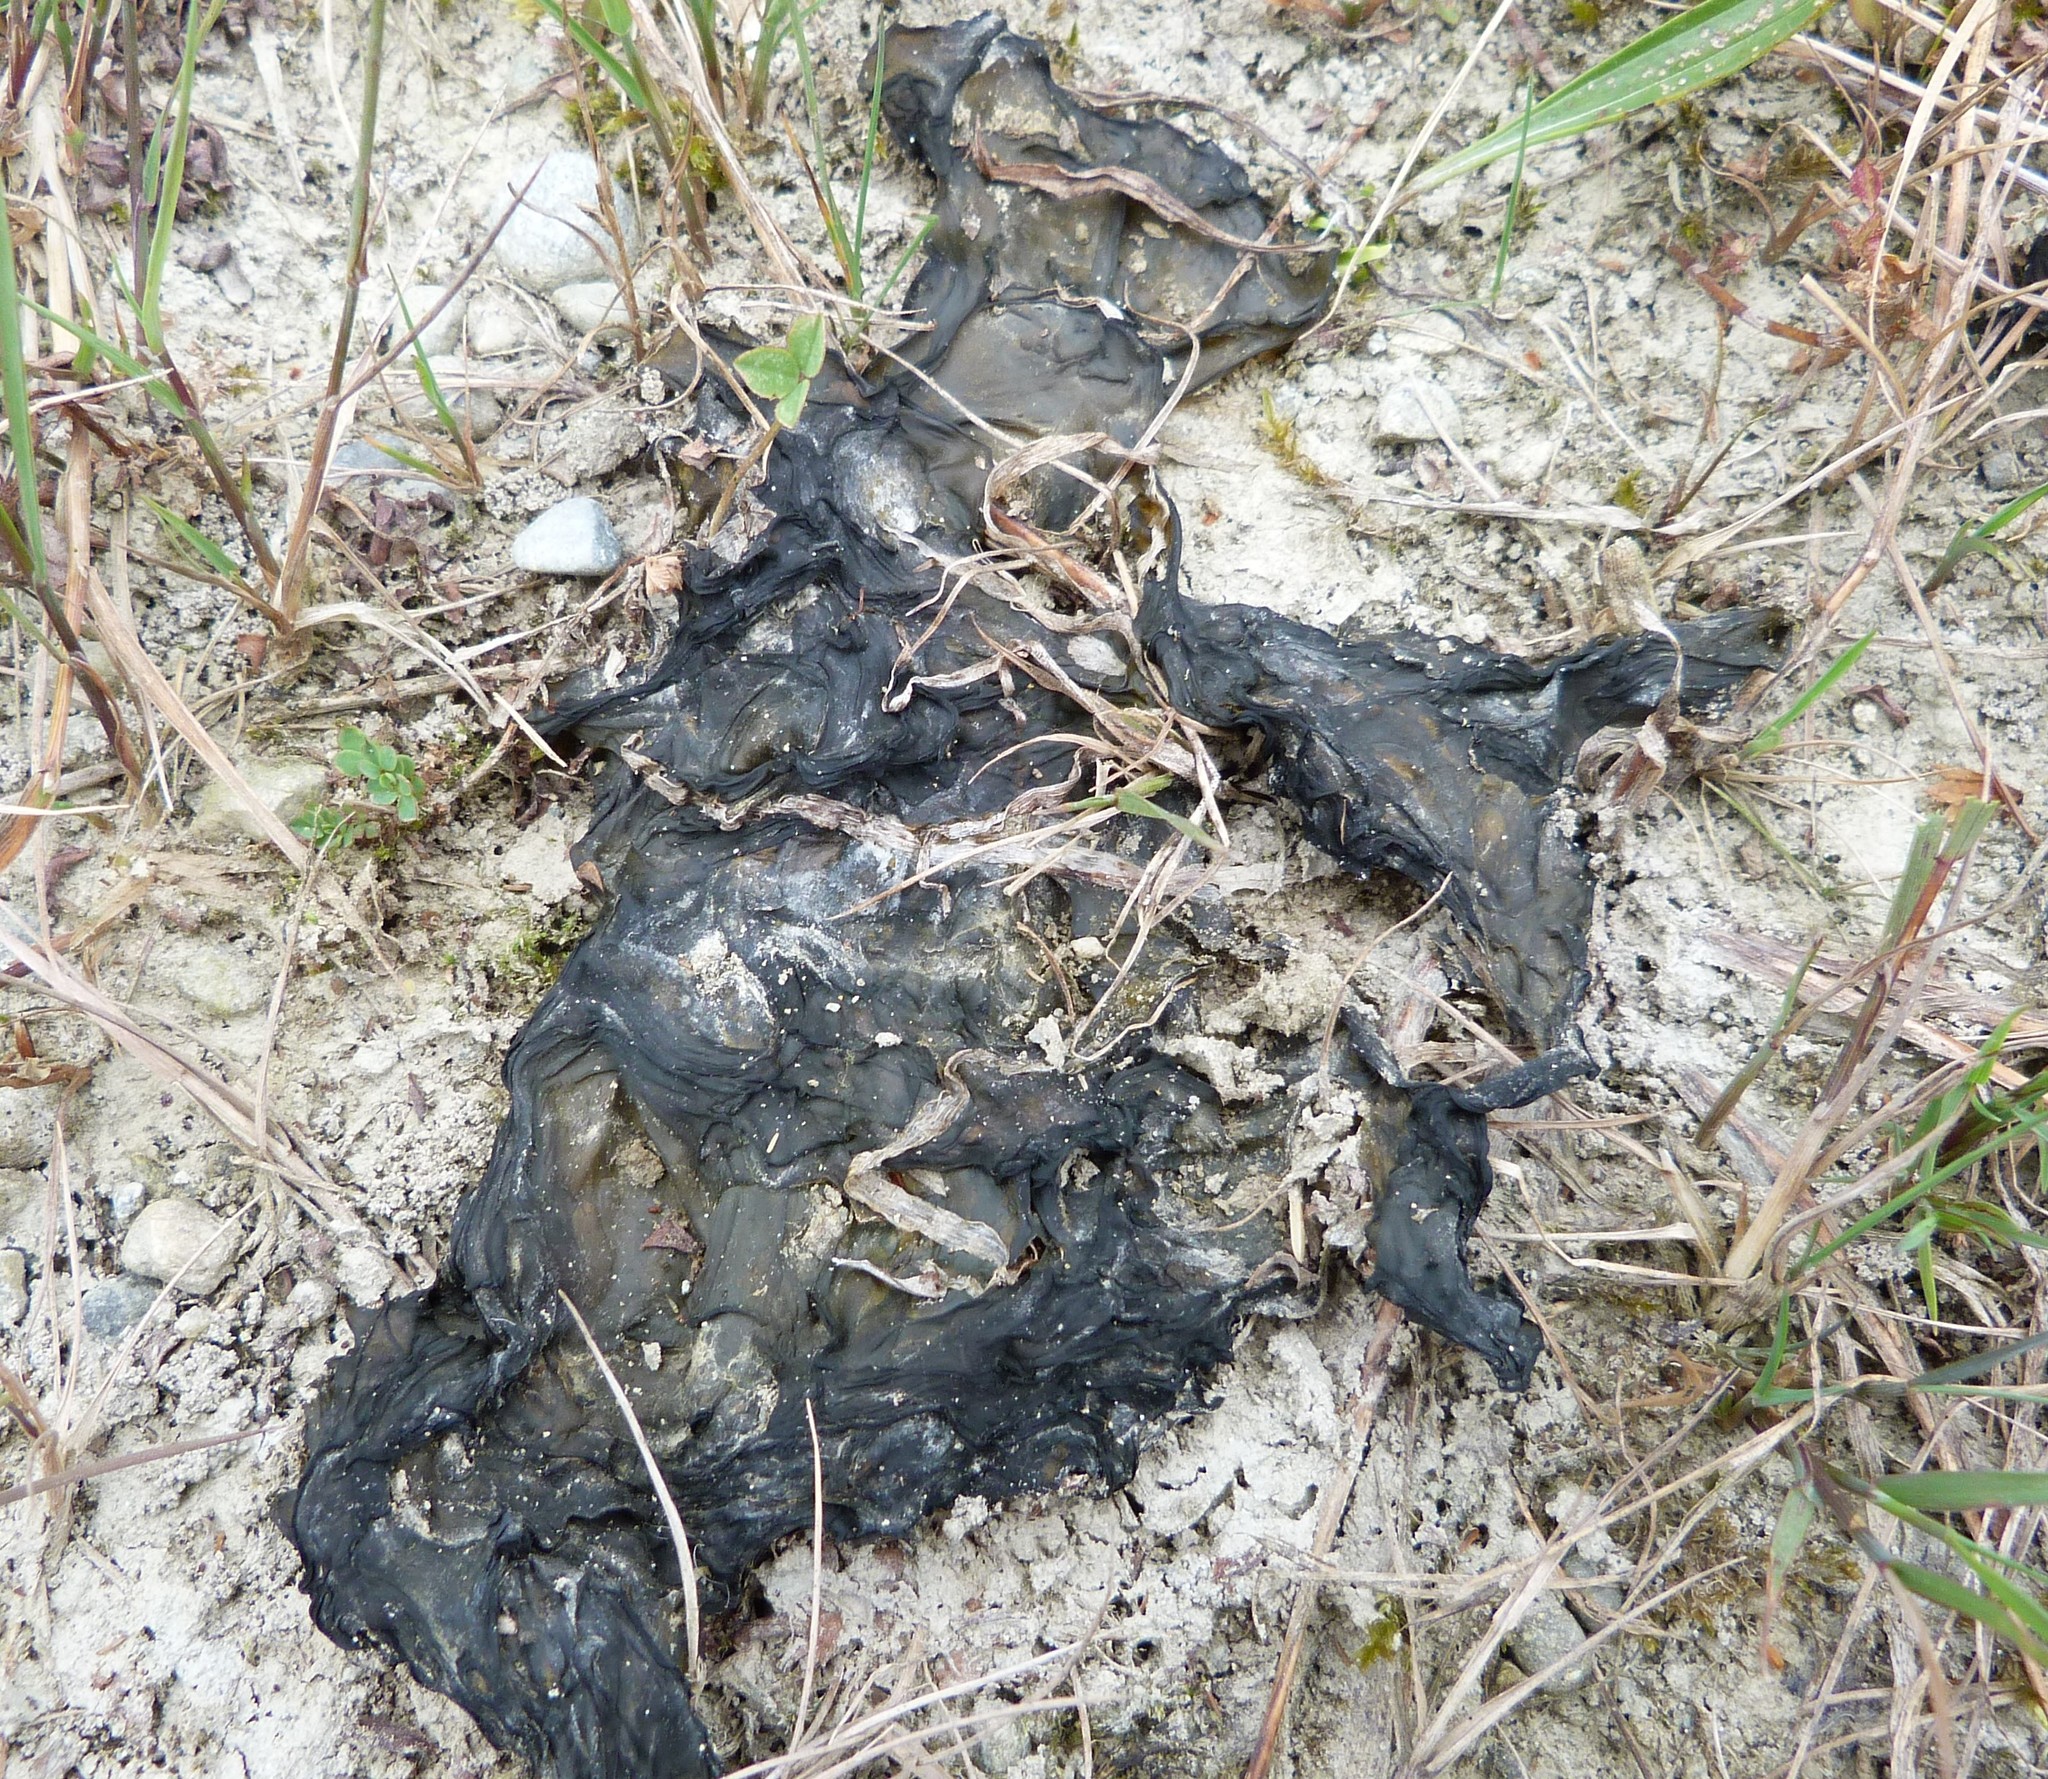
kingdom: Bacteria
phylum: Cyanobacteria
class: Cyanobacteriia
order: Cyanobacteriales
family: Nostocaceae
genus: Nostoc
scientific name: Nostoc commune
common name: Star jelly
